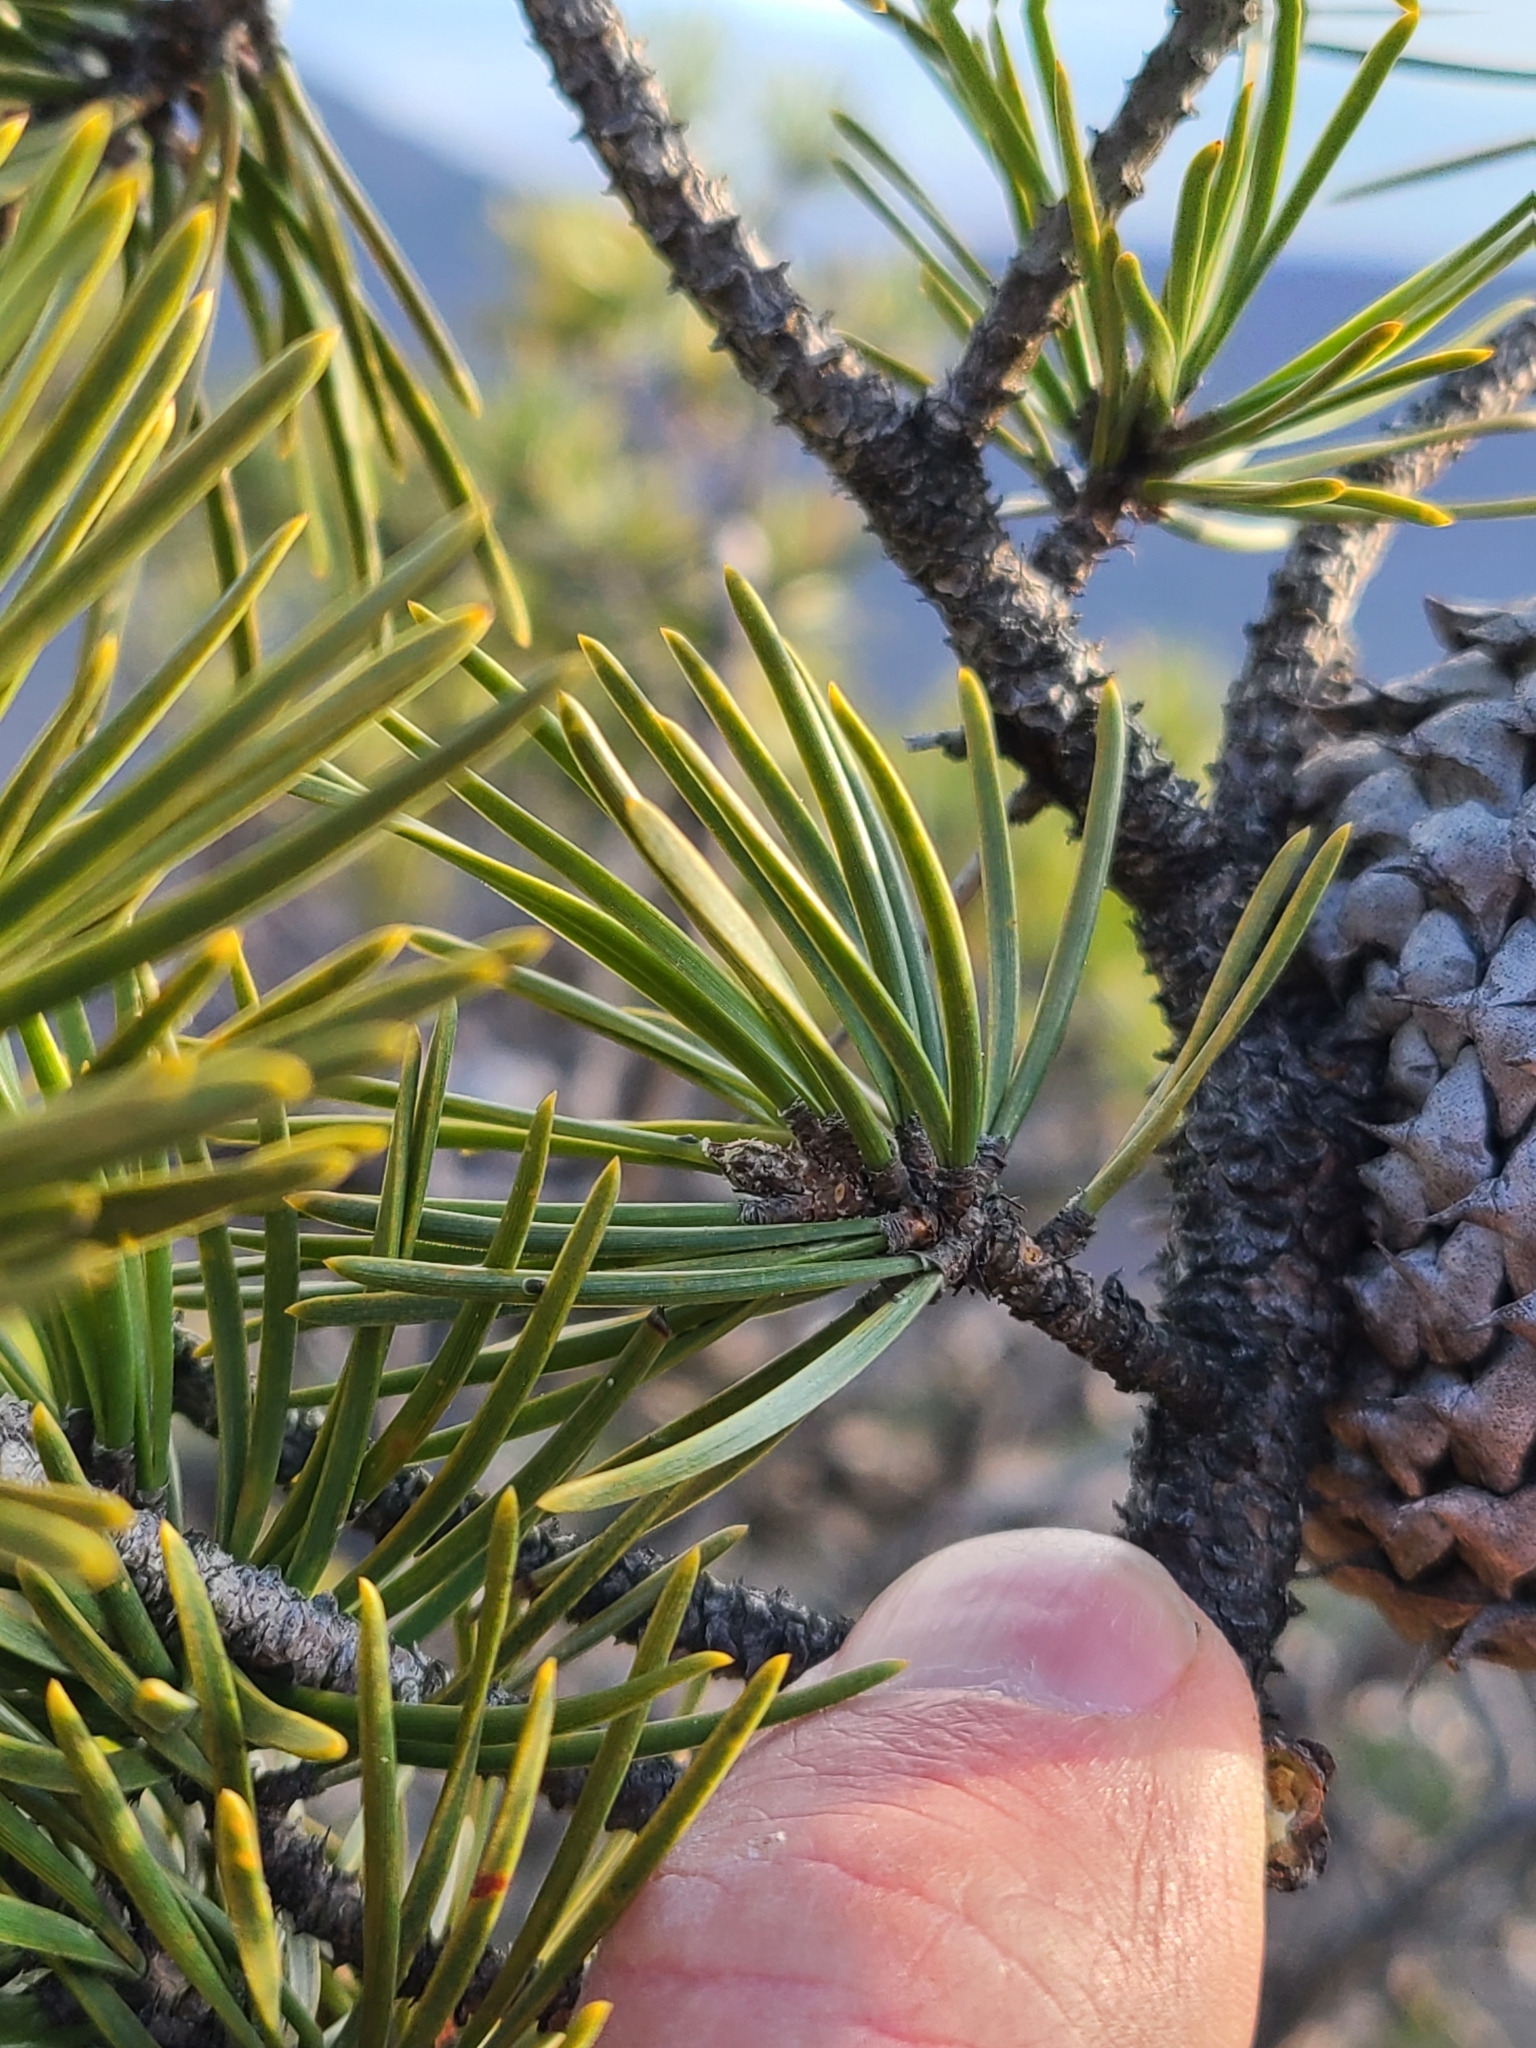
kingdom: Plantae
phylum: Tracheophyta
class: Pinopsida
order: Pinales
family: Pinaceae
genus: Pinus
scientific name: Pinus pungens
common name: Hickory pine
